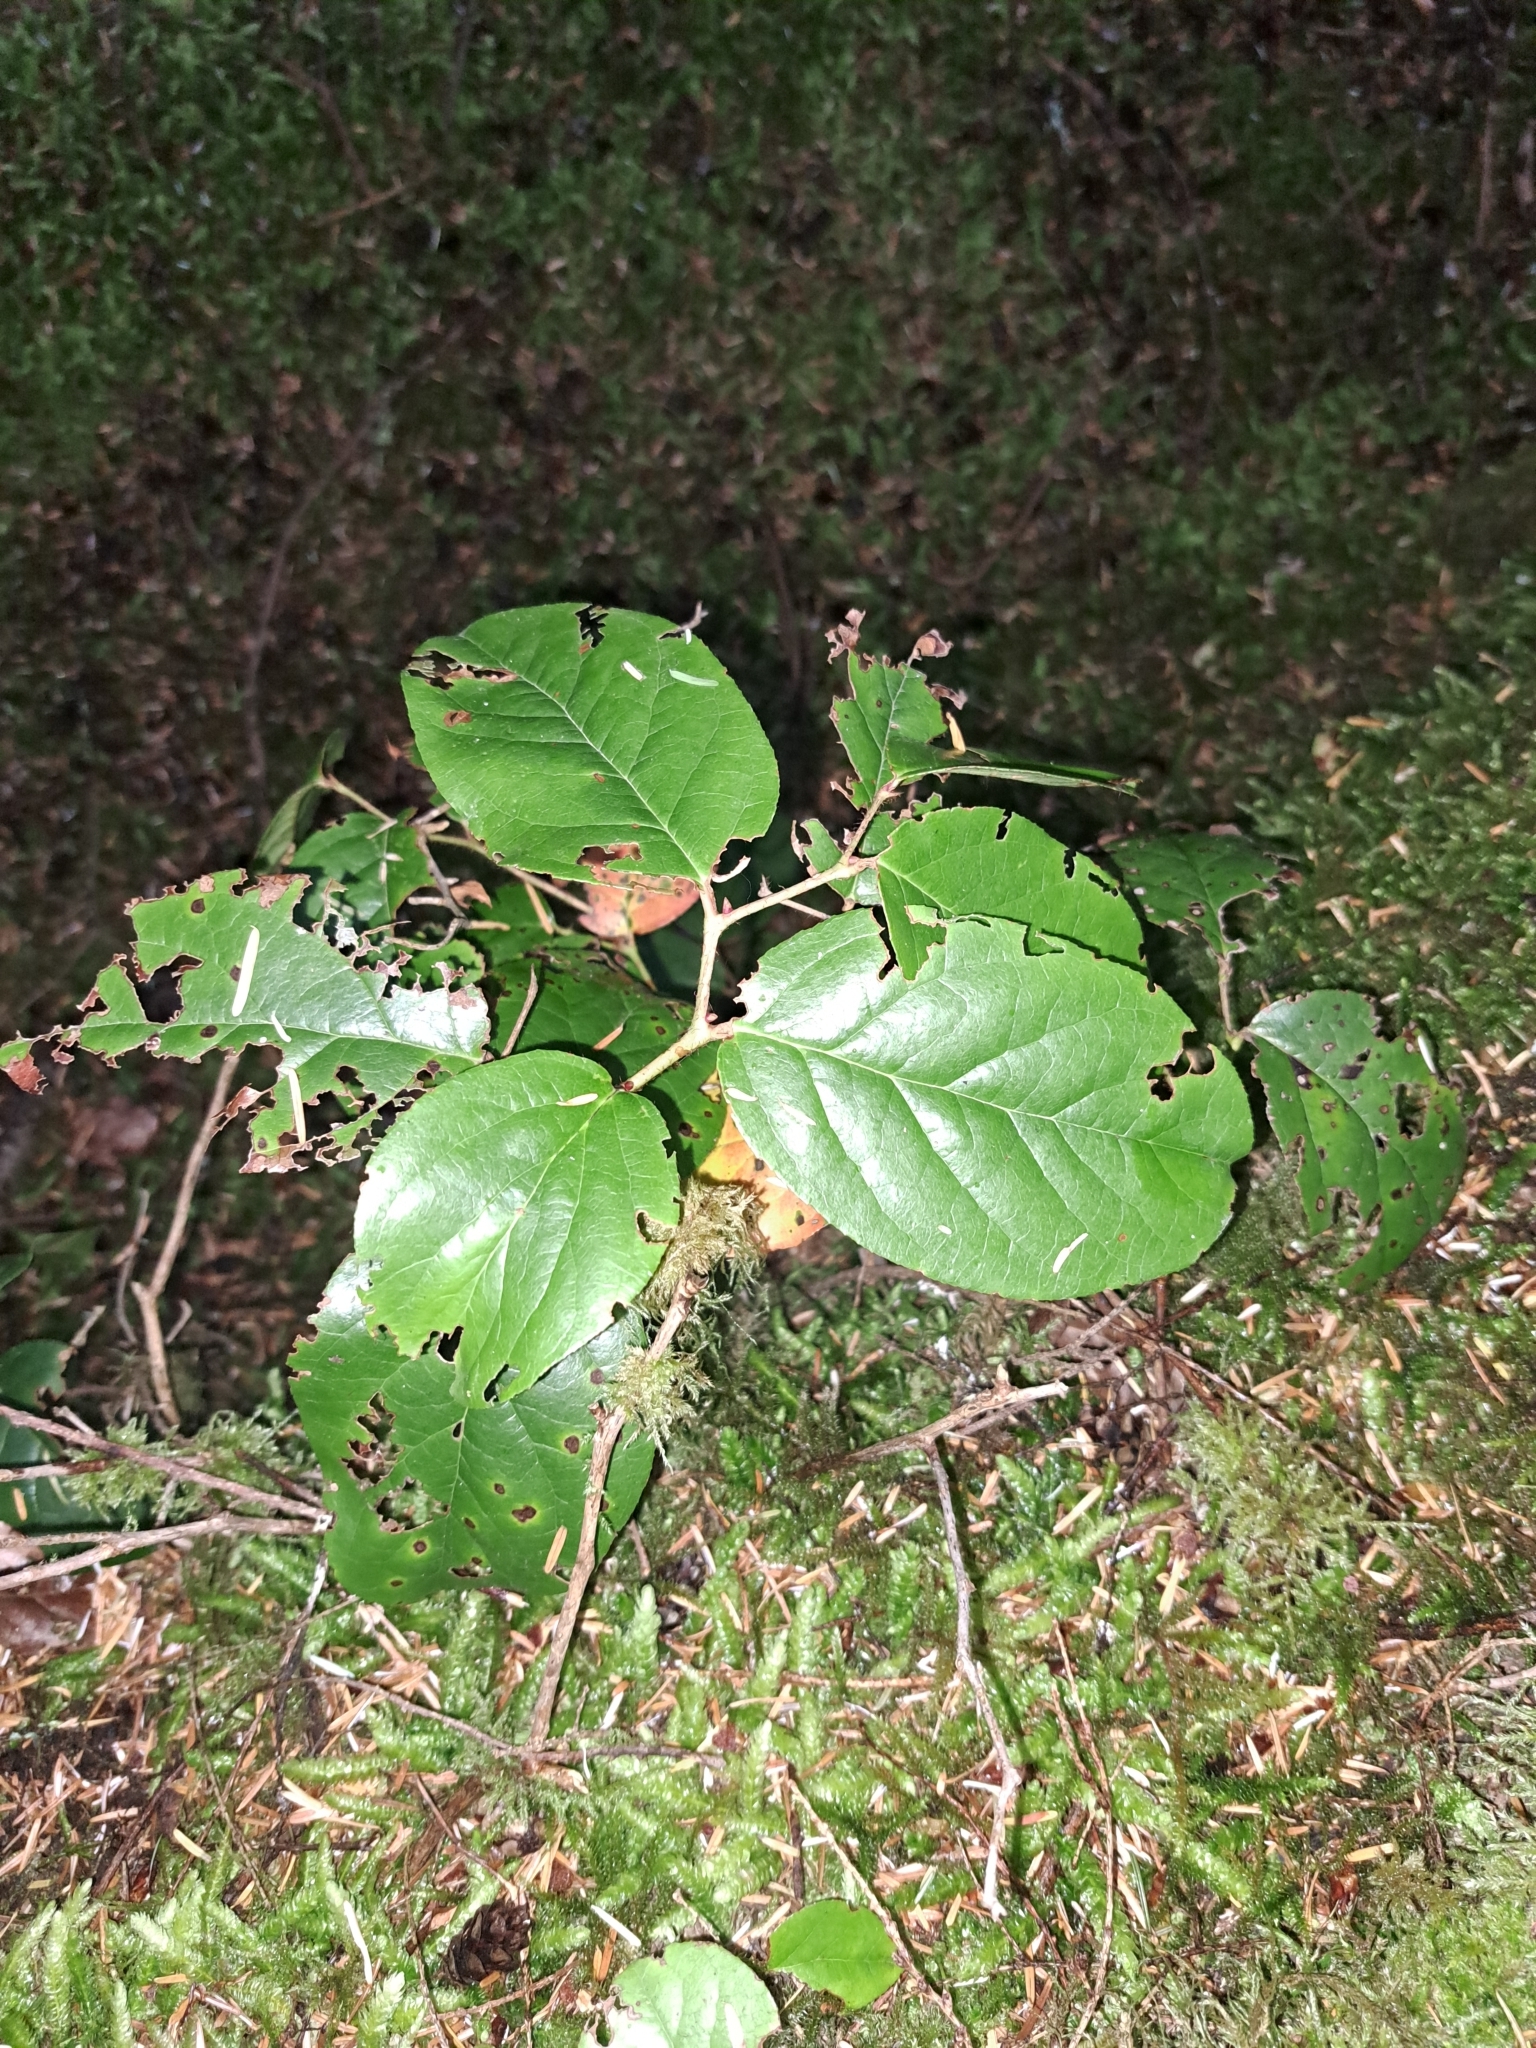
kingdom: Plantae
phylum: Tracheophyta
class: Magnoliopsida
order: Ericales
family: Ericaceae
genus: Gaultheria
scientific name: Gaultheria shallon
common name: Shallon
